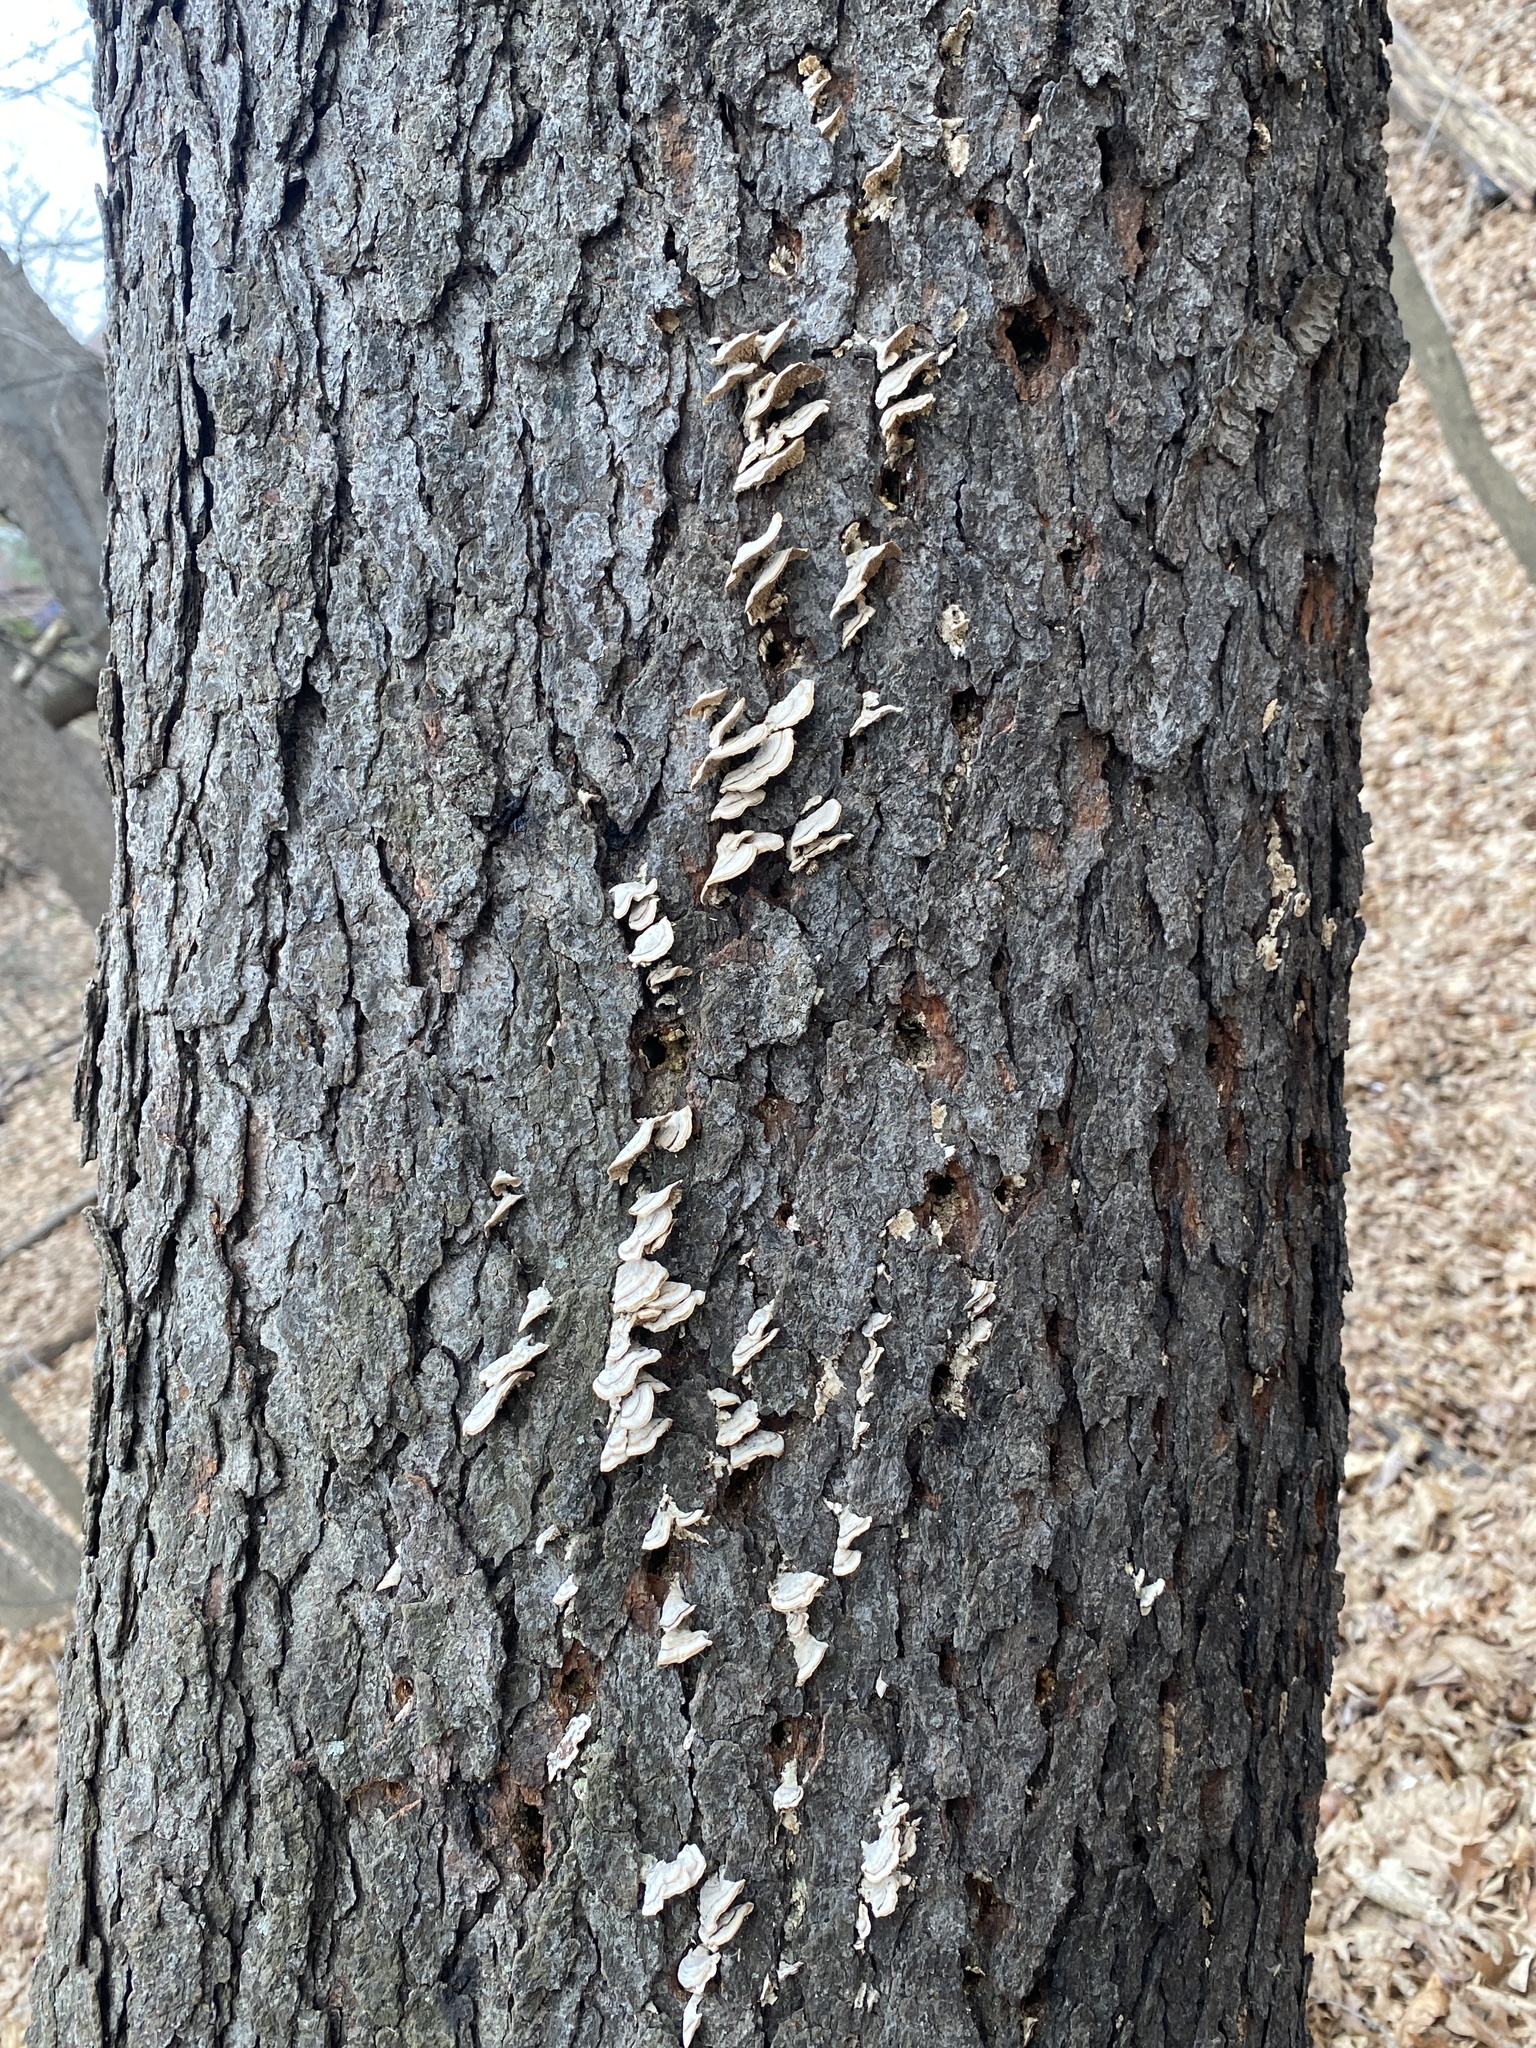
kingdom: Fungi
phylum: Basidiomycota
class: Agaricomycetes
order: Hymenochaetales
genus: Trichaptum
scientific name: Trichaptum biforme
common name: Violet-toothed polypore
